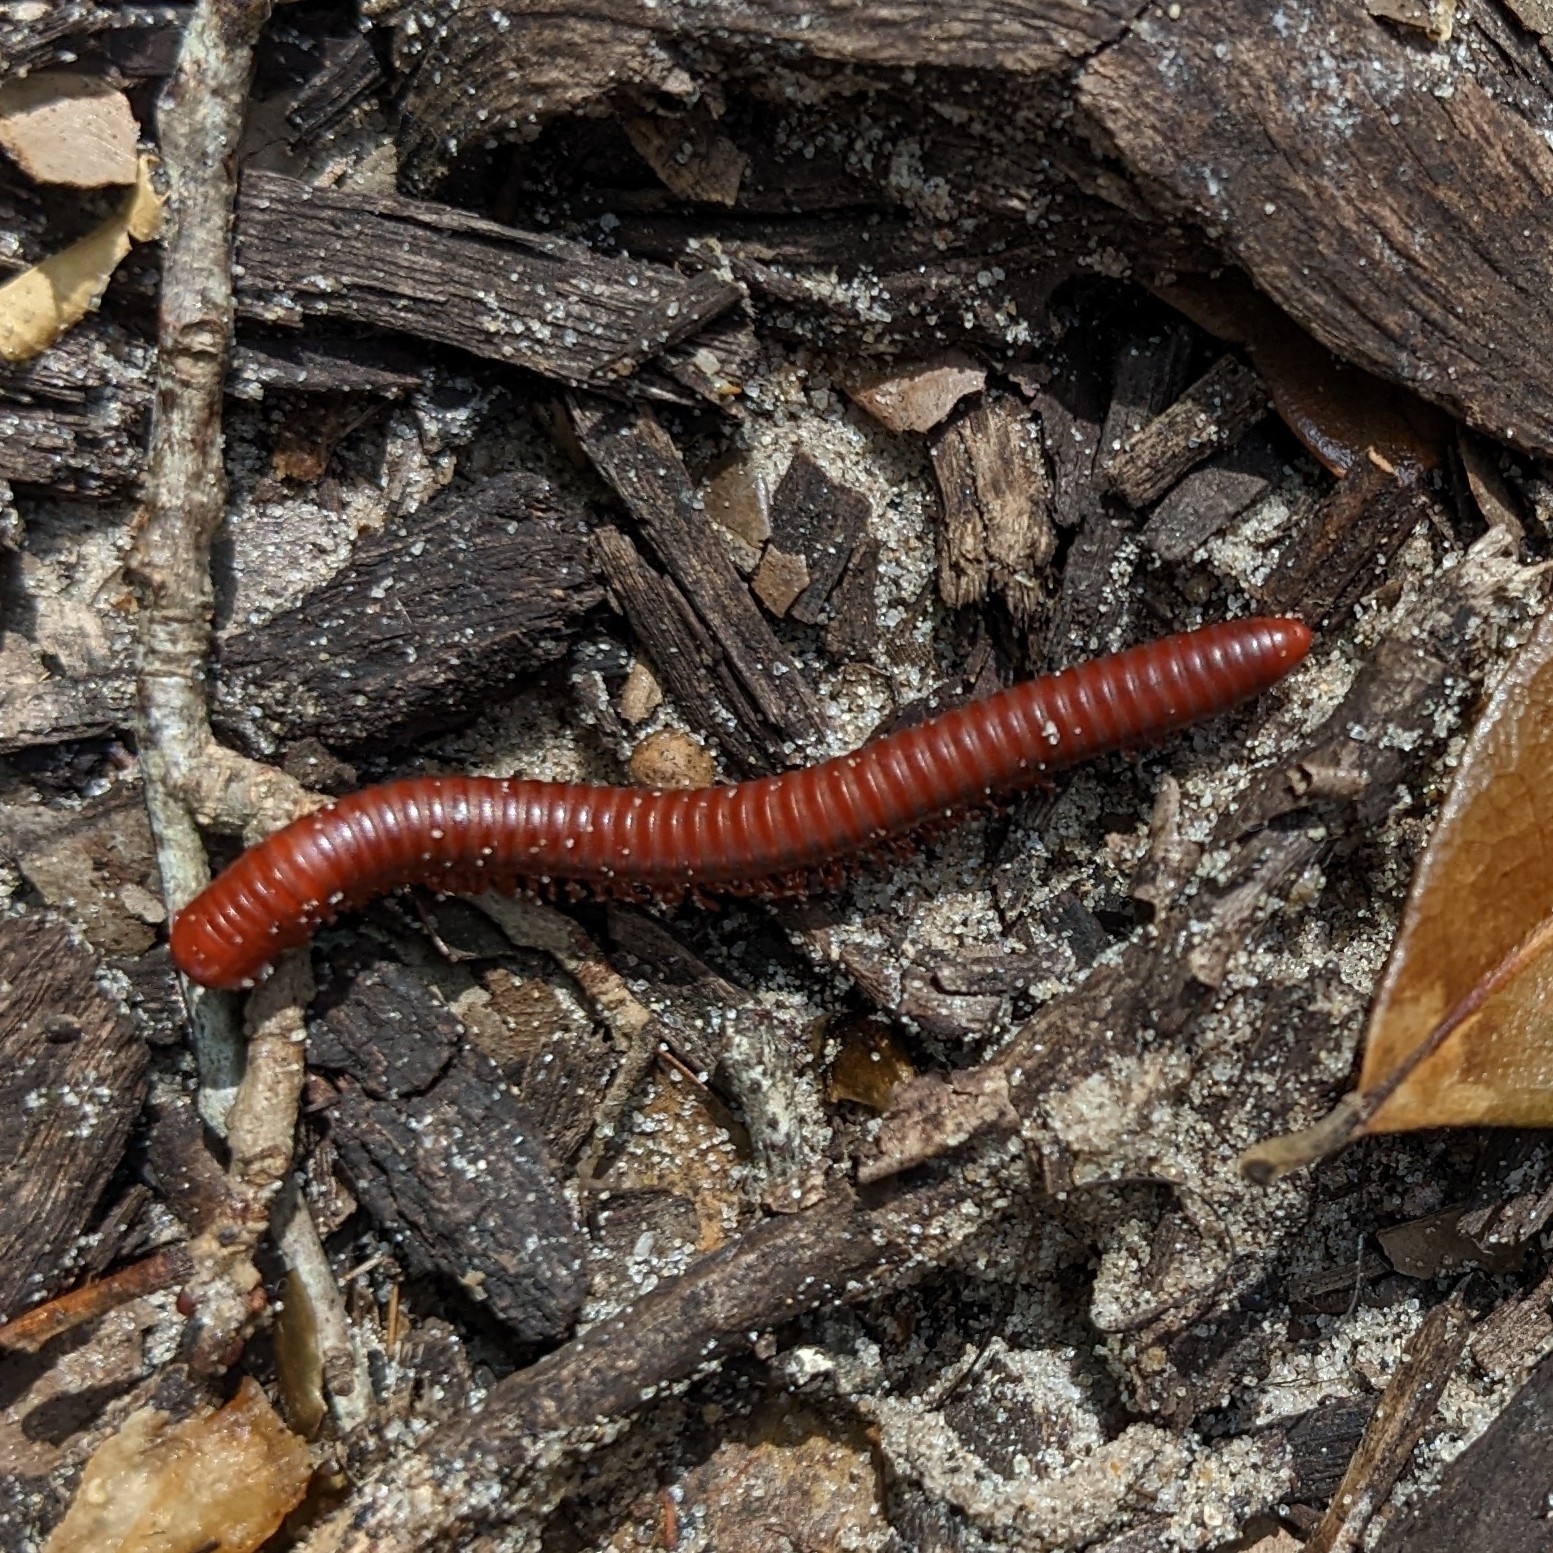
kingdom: Animalia
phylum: Arthropoda
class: Diplopoda
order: Spirobolida
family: Pachybolidae
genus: Trigoniulus
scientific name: Trigoniulus corallinus
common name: Millipede
